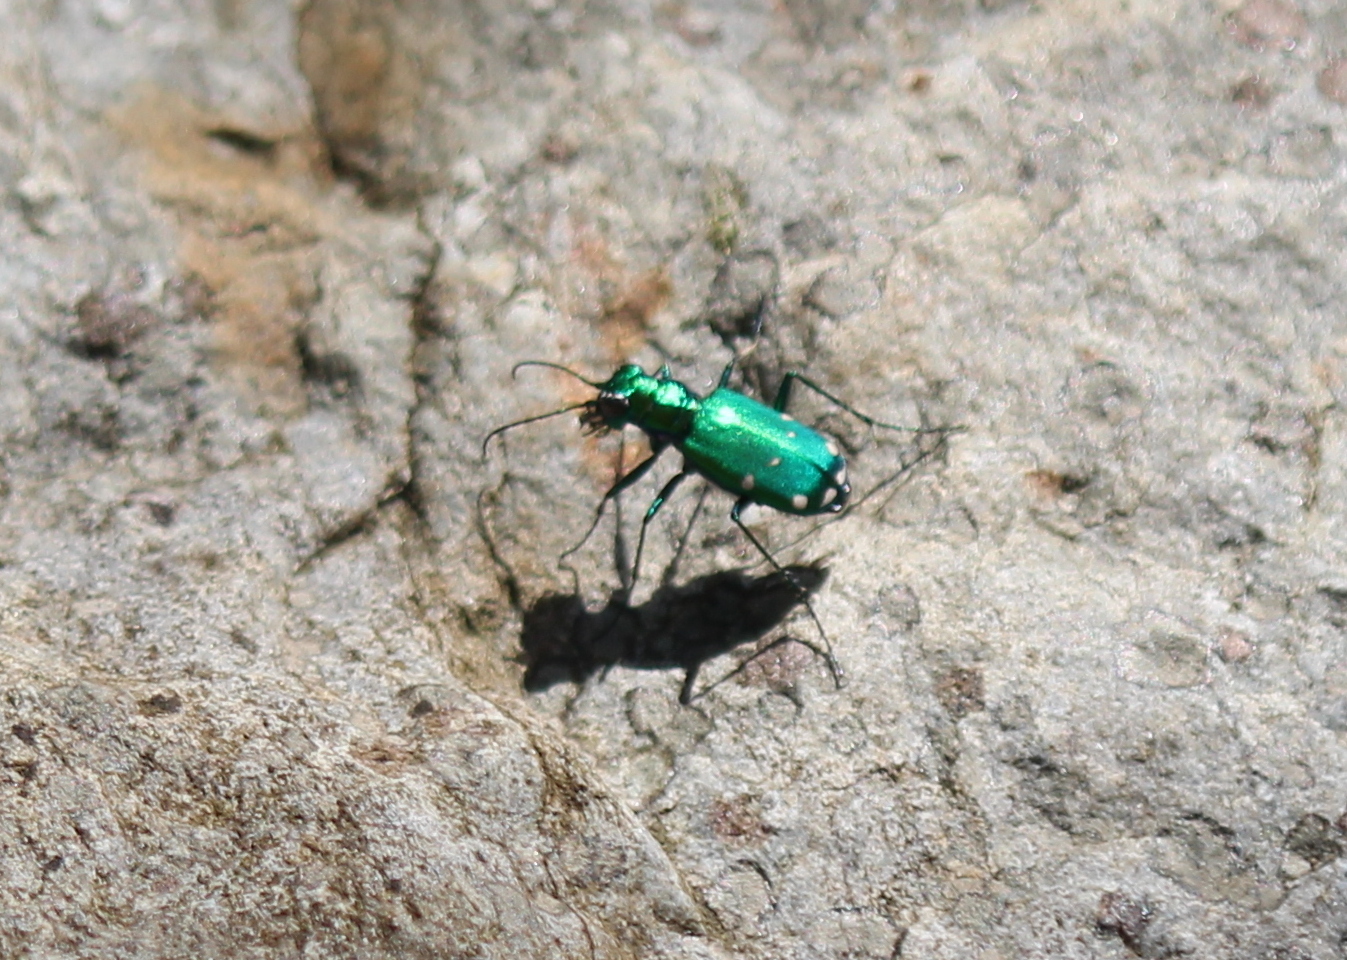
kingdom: Animalia
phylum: Arthropoda
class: Insecta
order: Coleoptera
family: Carabidae
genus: Cicindela
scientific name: Cicindela sexguttata
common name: Six-spotted tiger beetle
